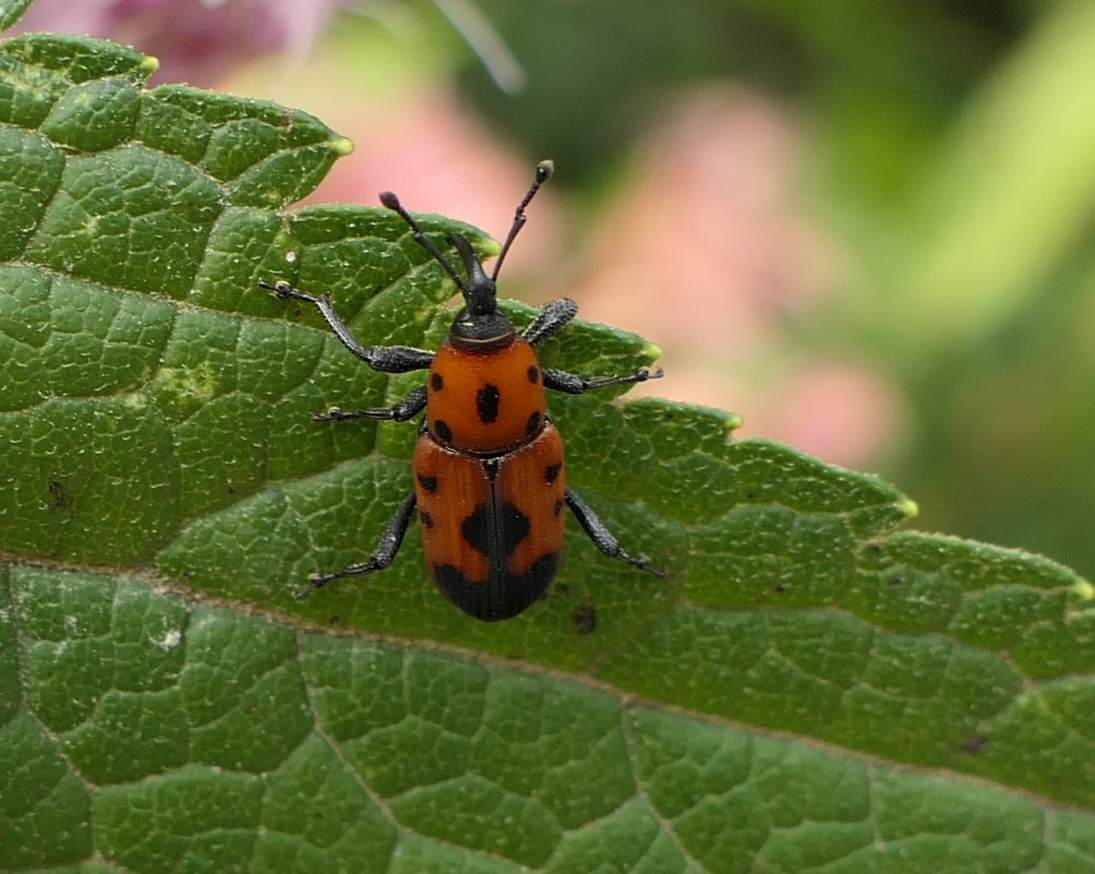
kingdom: Animalia
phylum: Arthropoda
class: Insecta
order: Coleoptera
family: Dryophthoridae
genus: Rhodobaenus
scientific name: Rhodobaenus quinquepunctatus
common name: Cocklebur weevil
